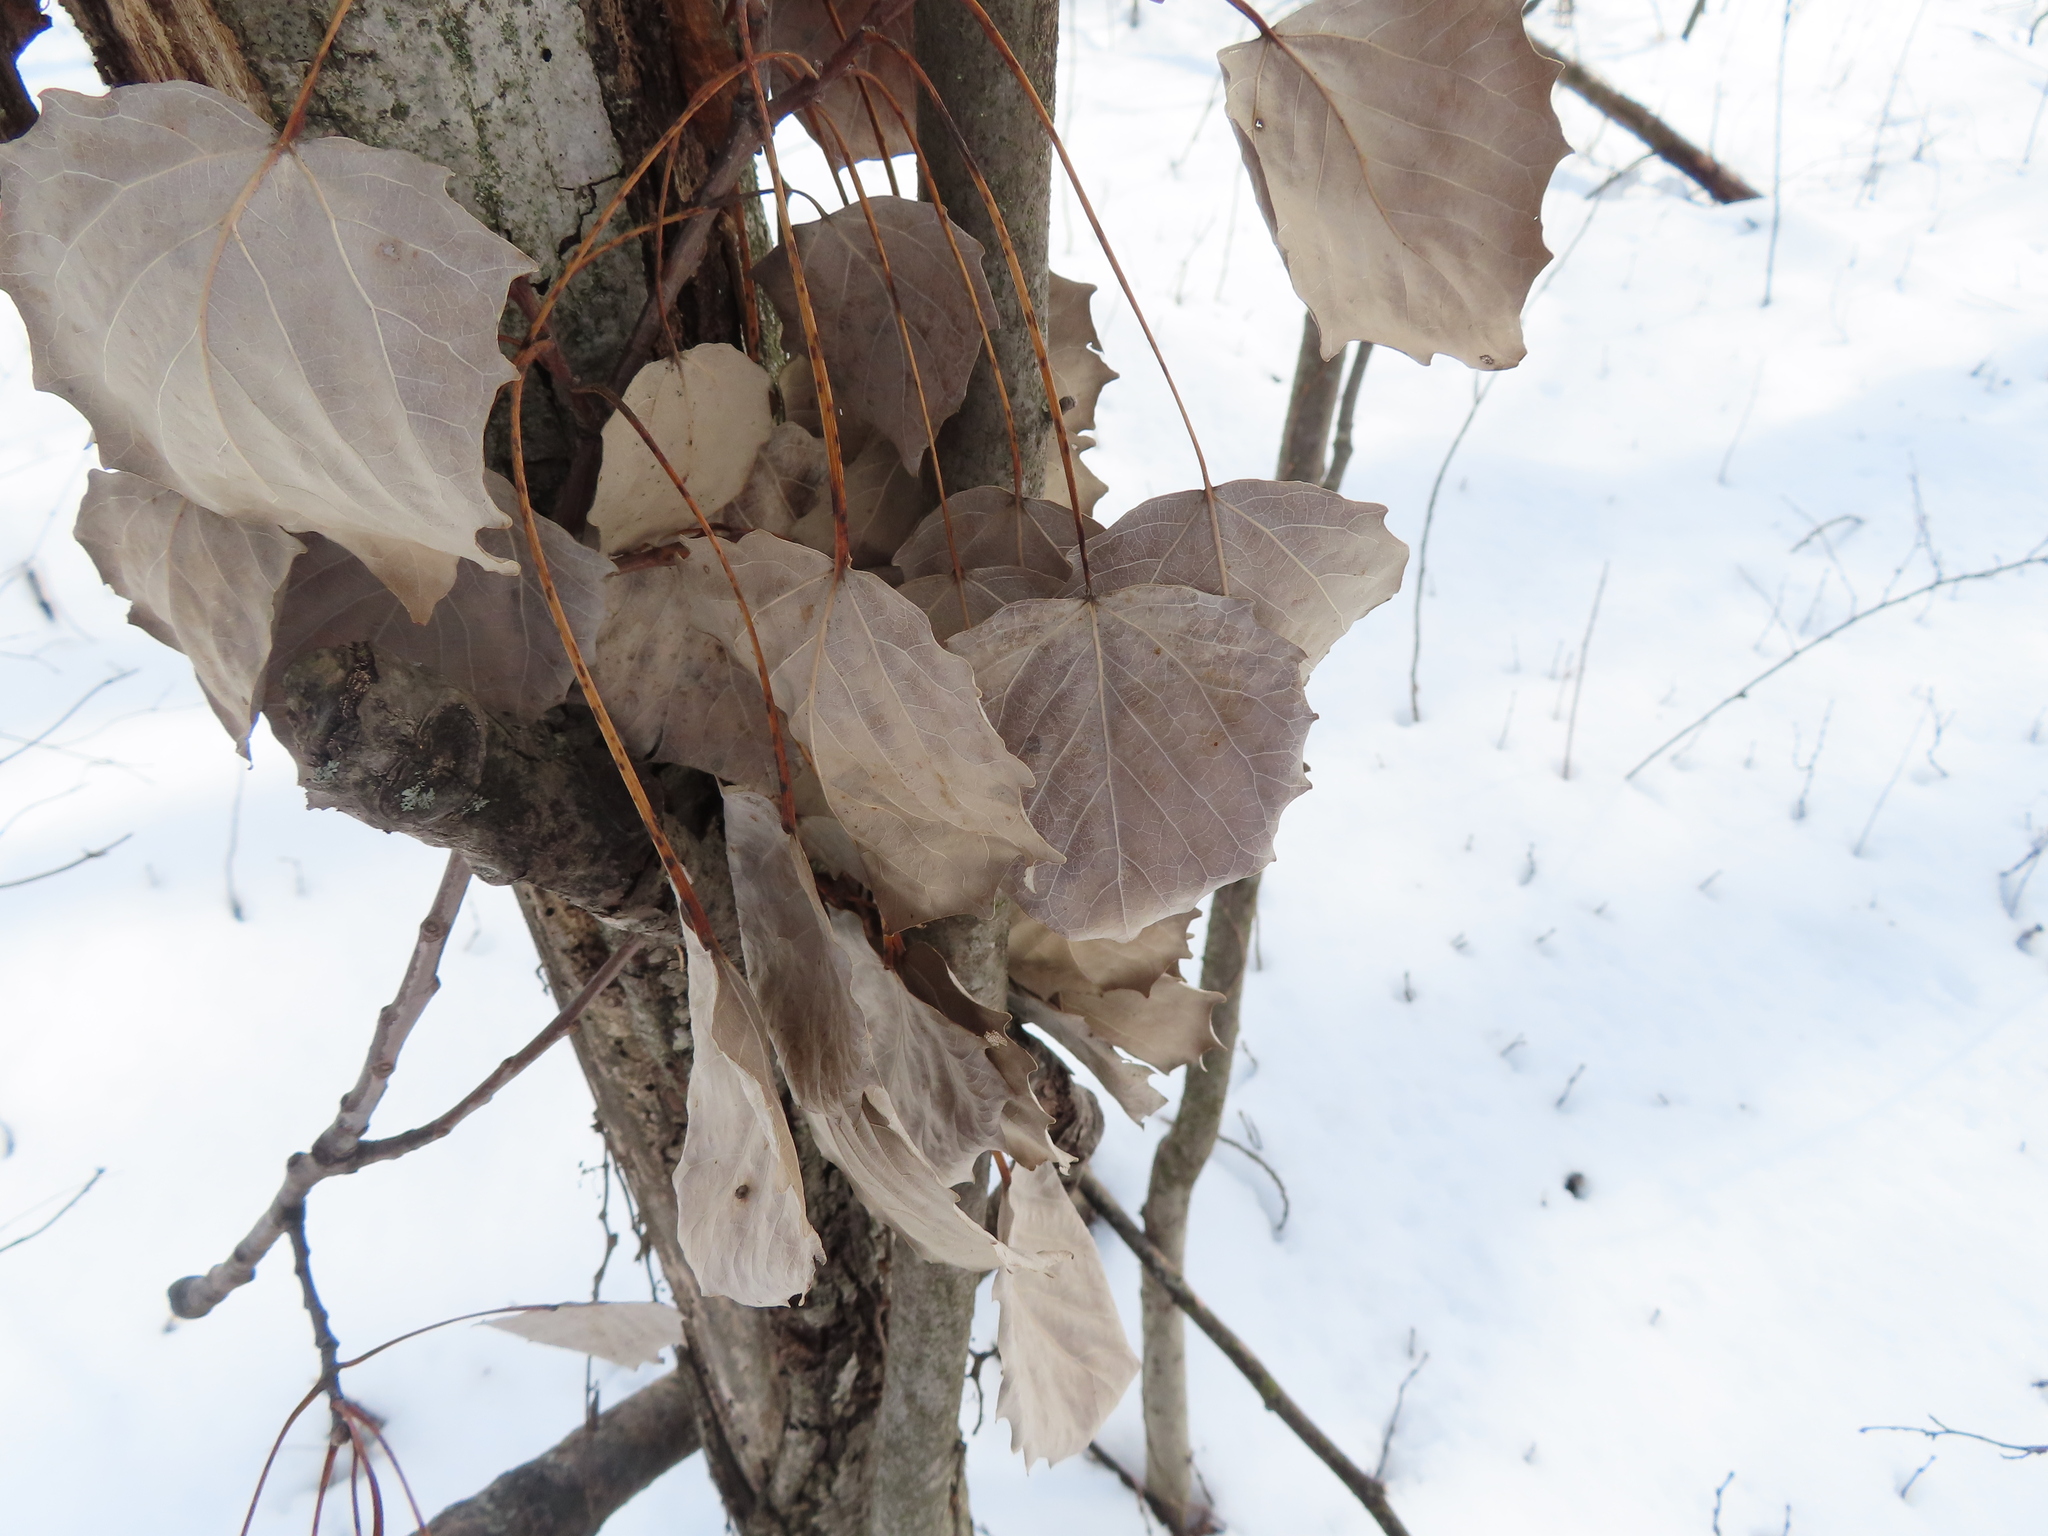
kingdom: Plantae
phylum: Tracheophyta
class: Magnoliopsida
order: Malpighiales
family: Salicaceae
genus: Populus
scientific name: Populus grandidentata
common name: Bigtooth aspen
